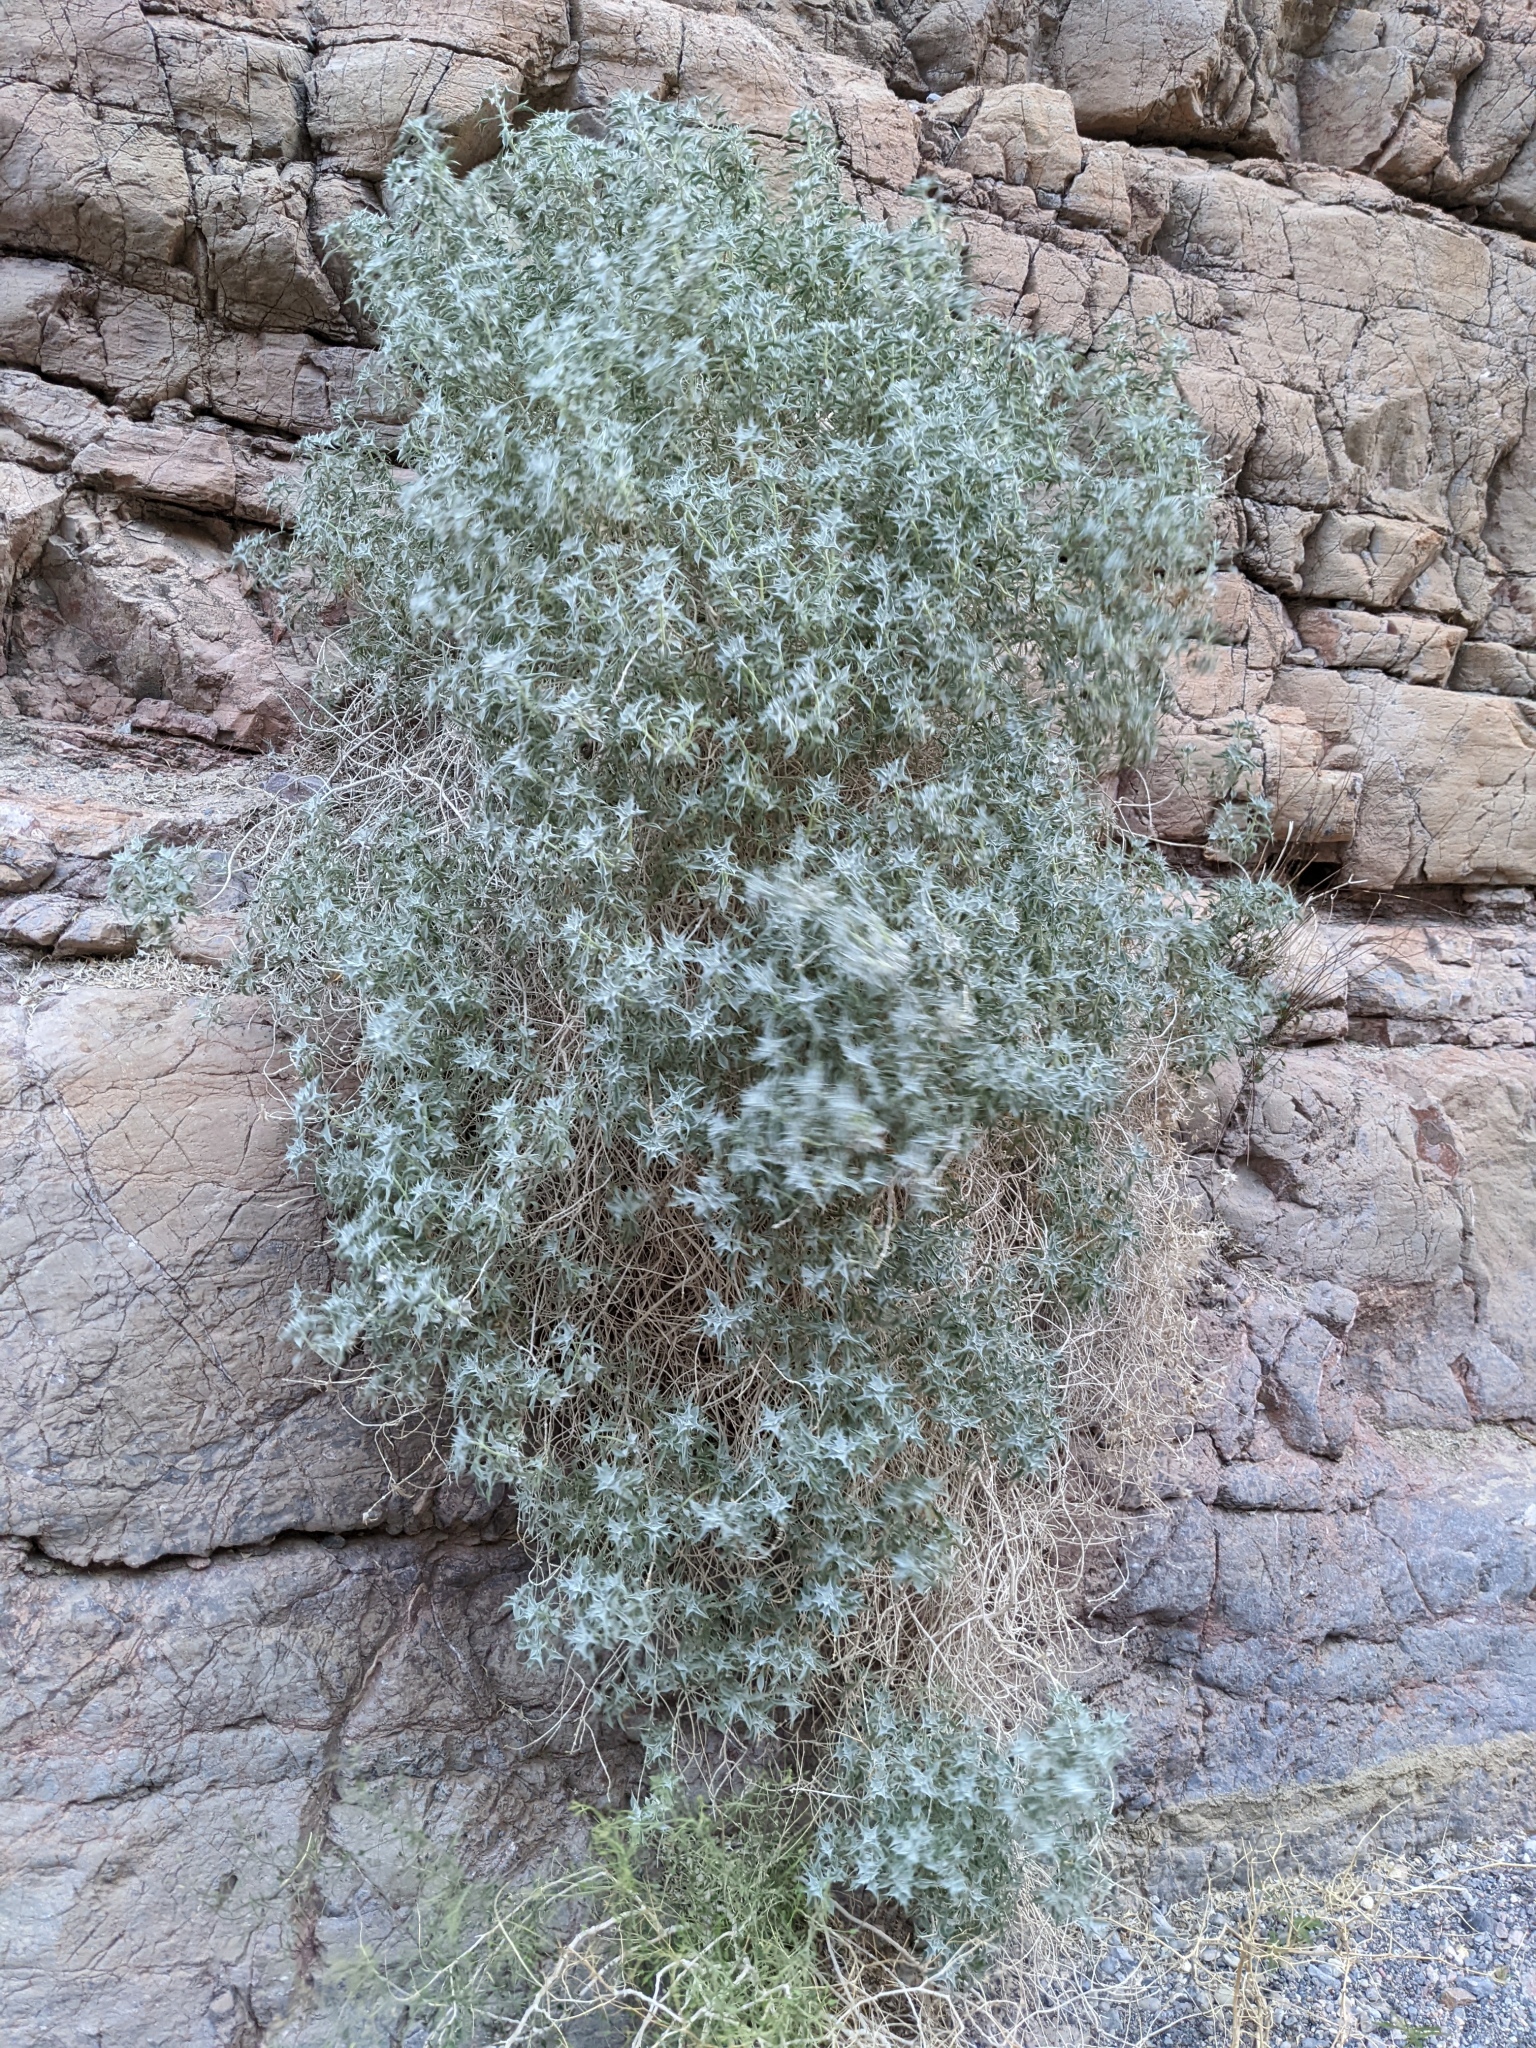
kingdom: Plantae
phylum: Tracheophyta
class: Magnoliopsida
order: Lamiales
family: Lamiaceae
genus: Salvia
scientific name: Salvia funerea
